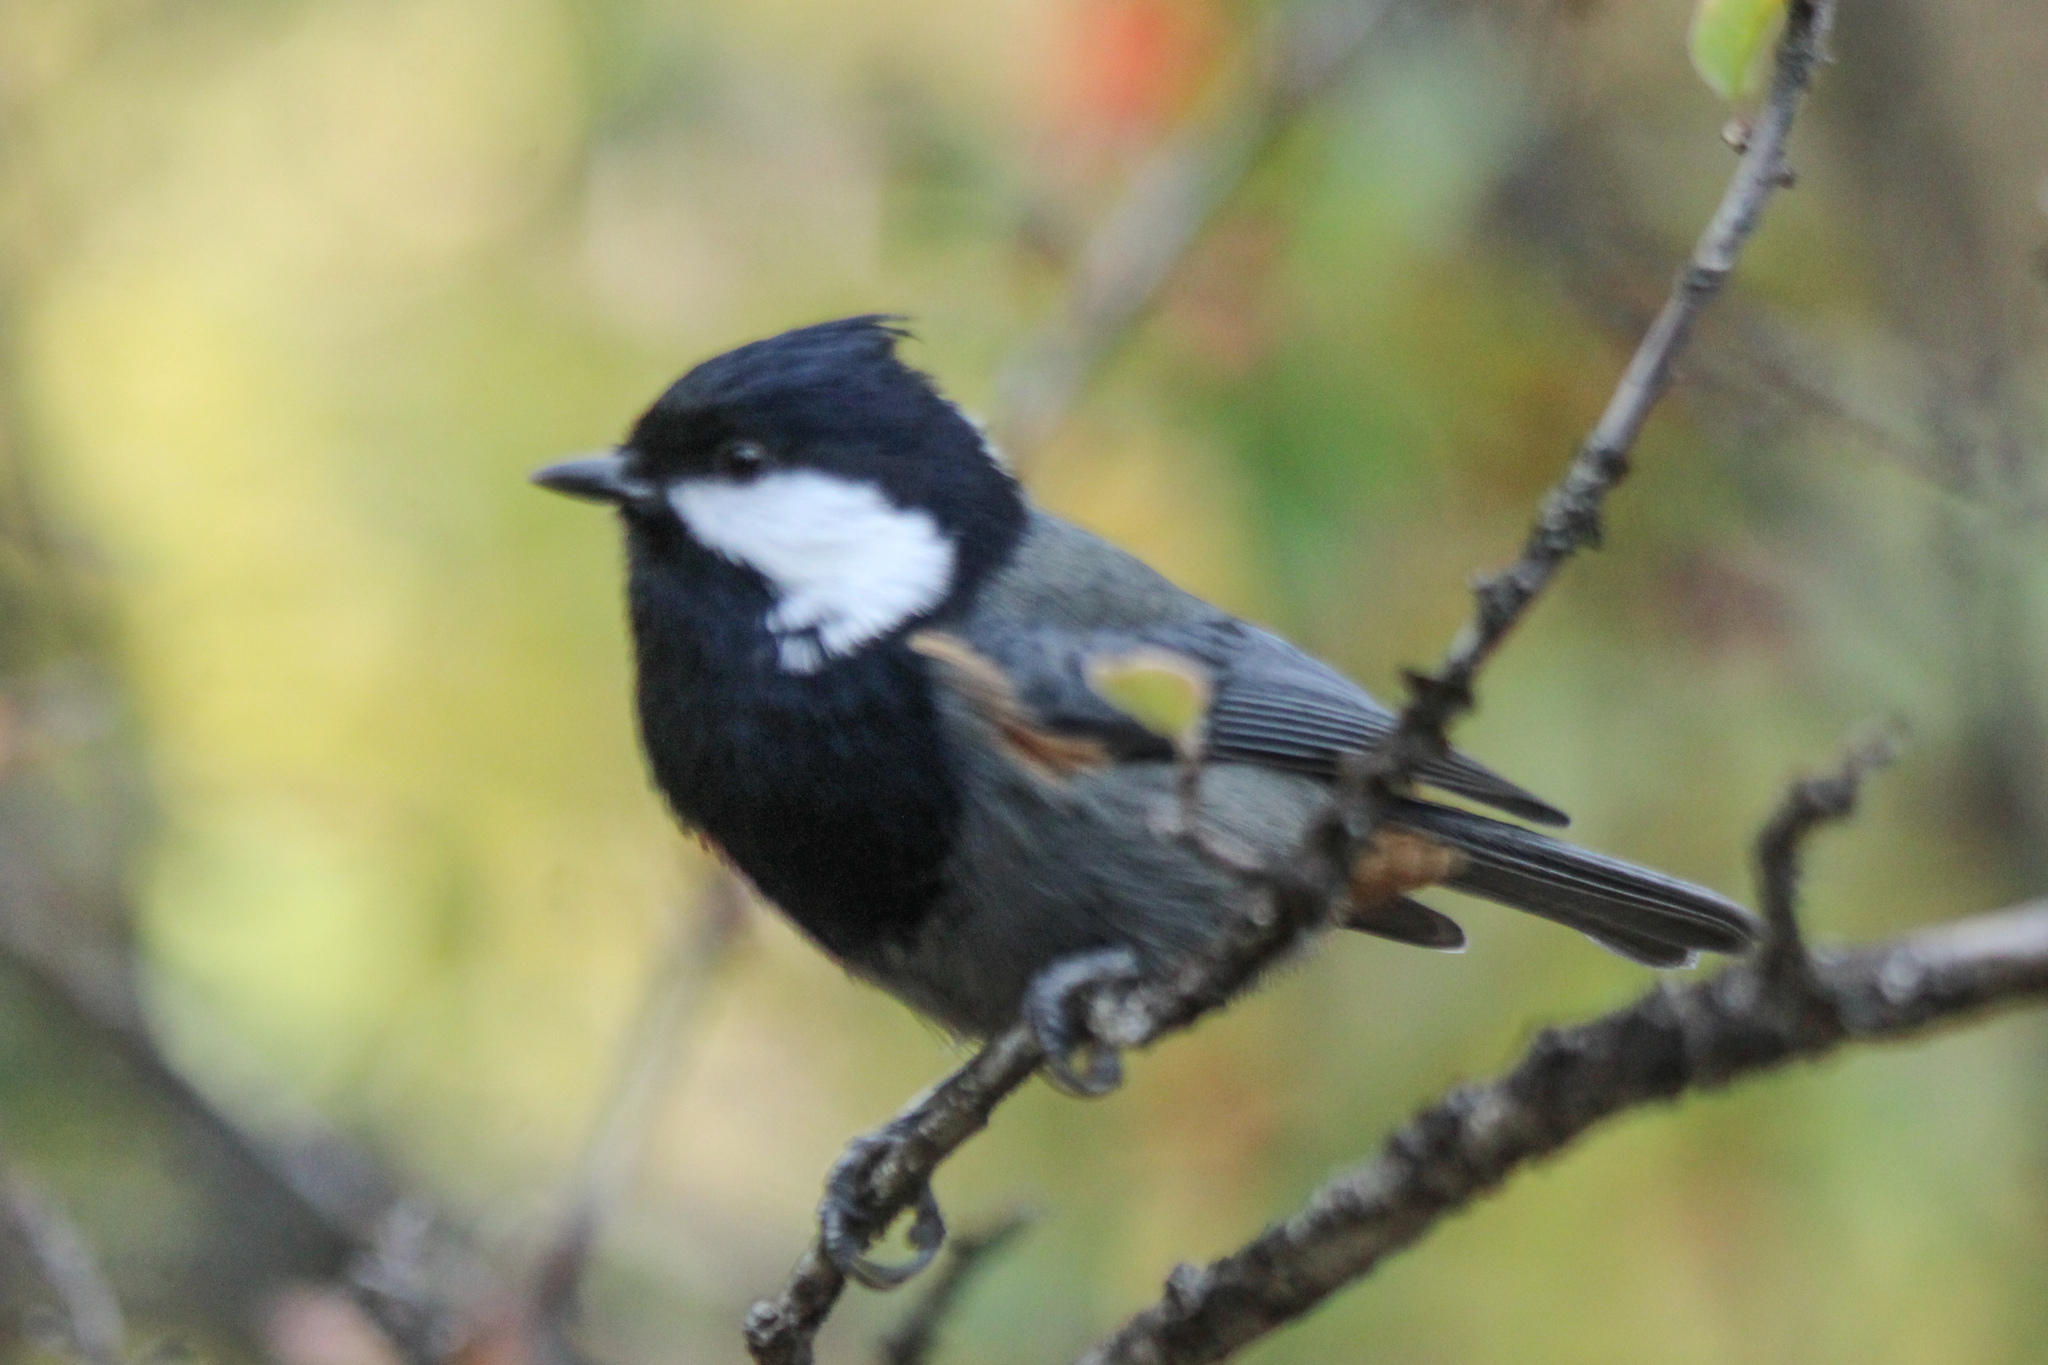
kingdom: Animalia
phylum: Chordata
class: Aves
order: Passeriformes
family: Paridae
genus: Periparus
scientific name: Periparus rufonuchalis
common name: Rufous-naped tit
